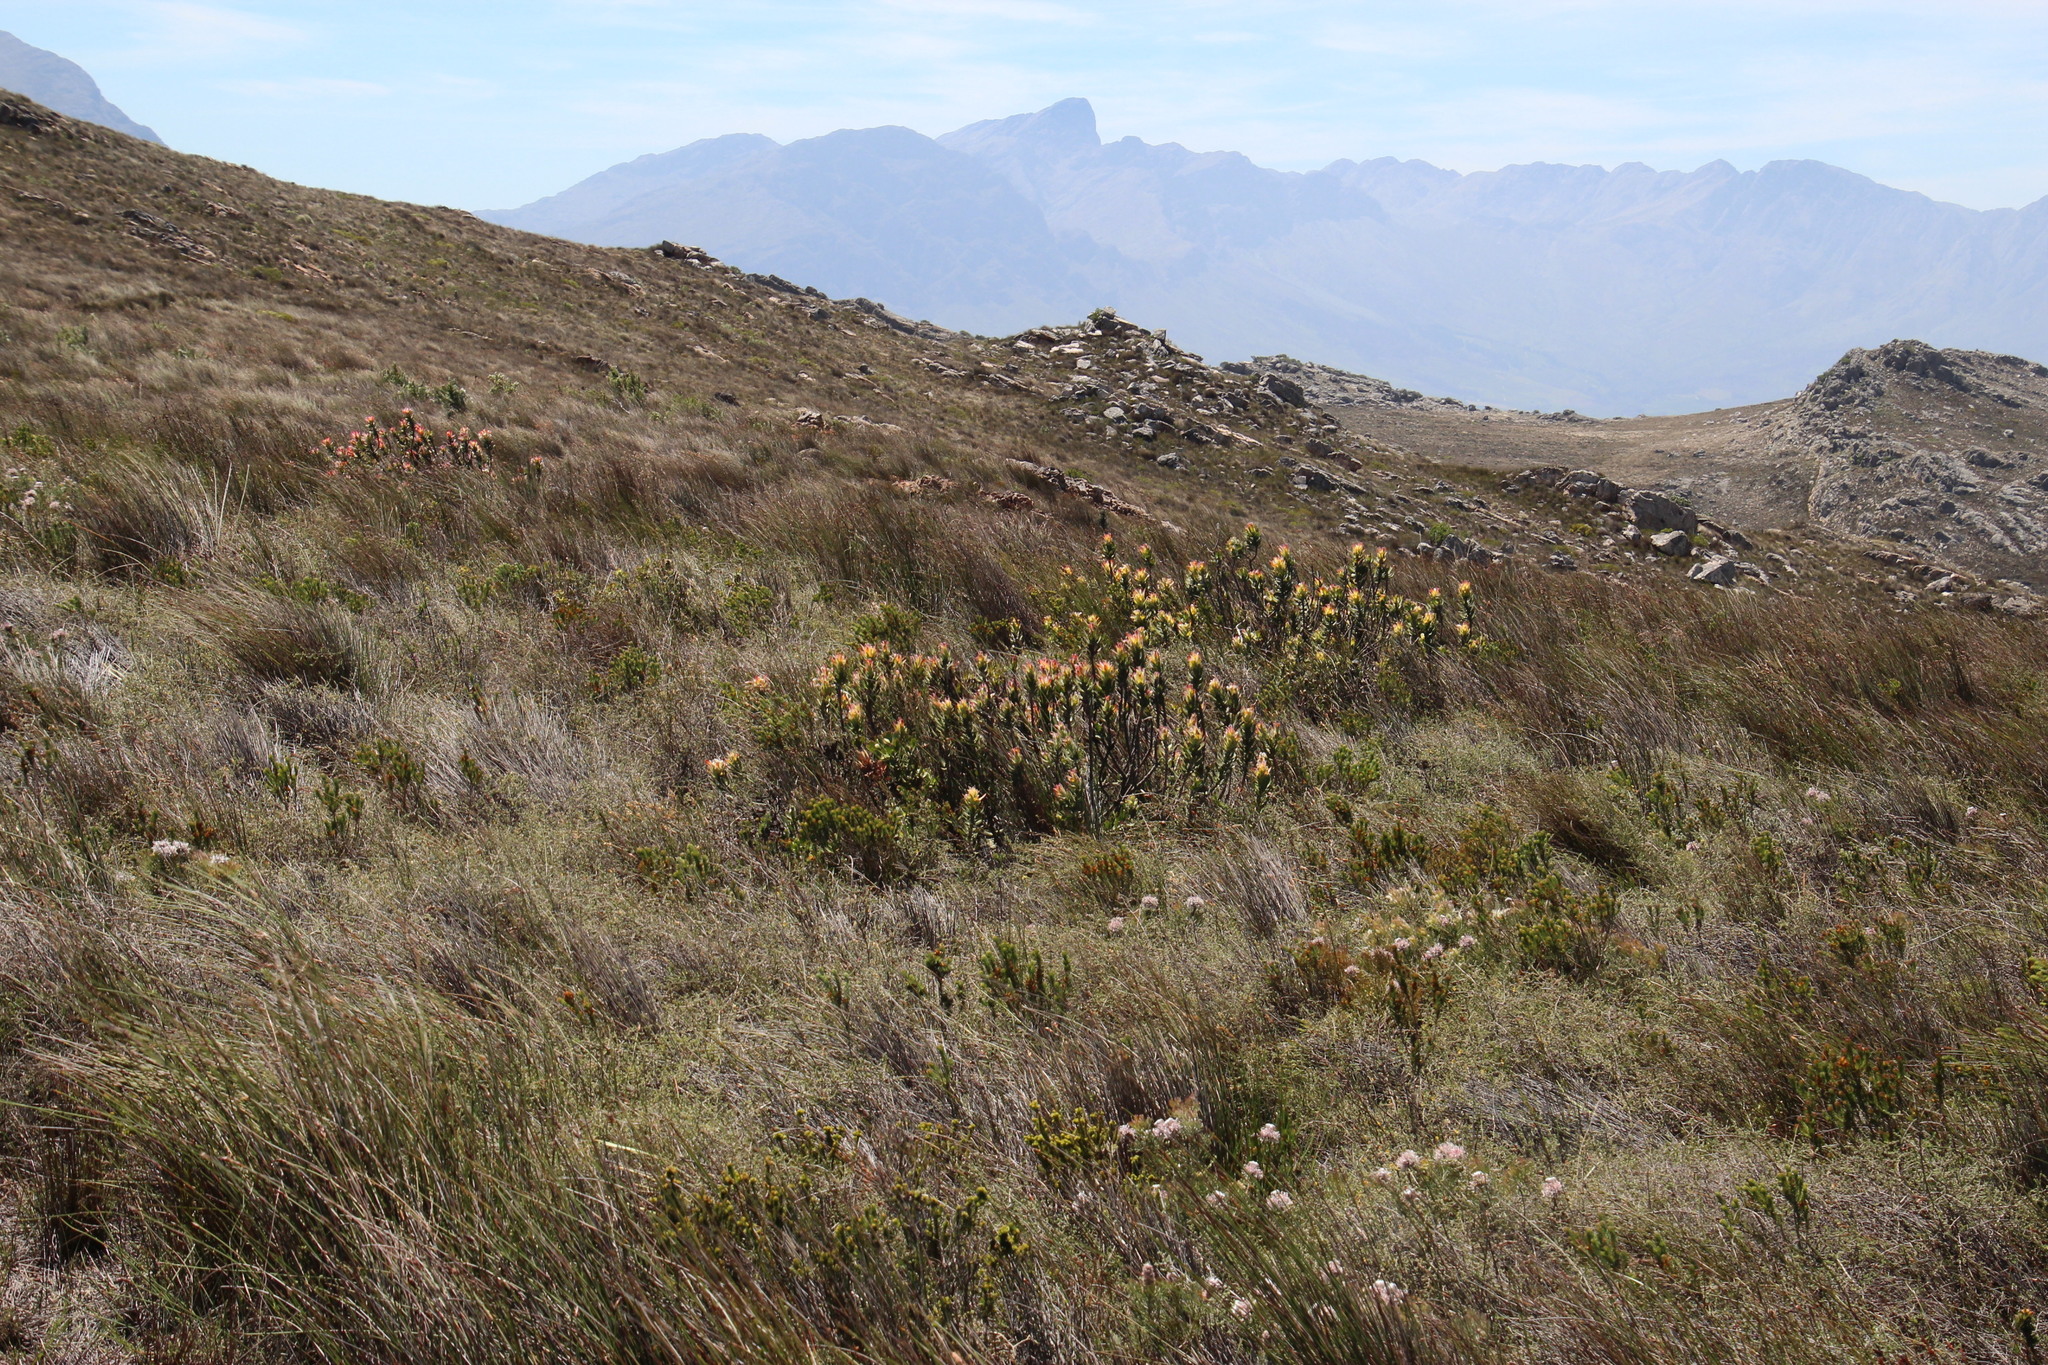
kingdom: Plantae
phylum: Tracheophyta
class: Magnoliopsida
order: Proteales
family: Proteaceae
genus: Mimetes
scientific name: Mimetes cucullatus
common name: Common pagoda
